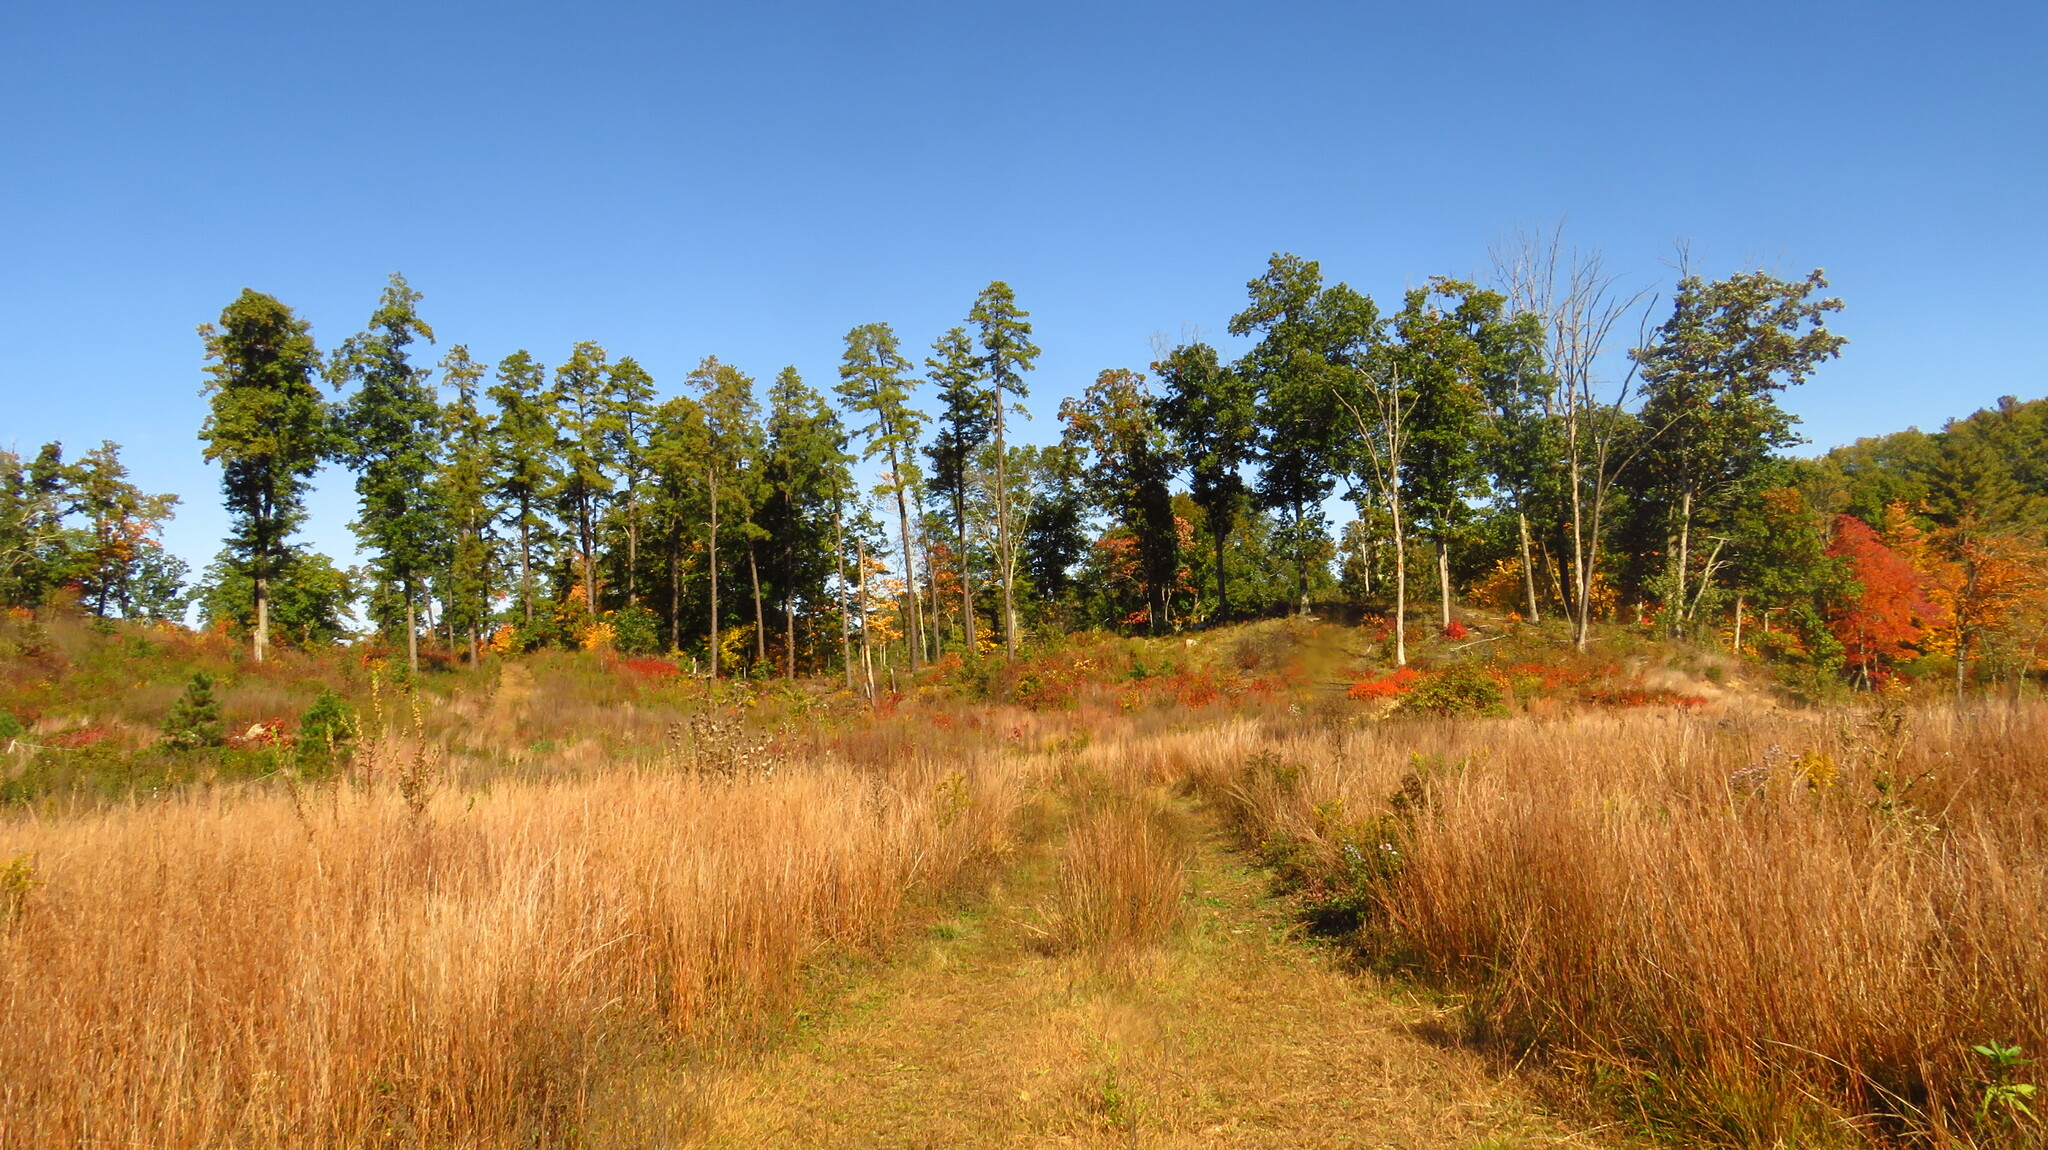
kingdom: Plantae
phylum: Tracheophyta
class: Liliopsida
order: Poales
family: Poaceae
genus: Schizachyrium
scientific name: Schizachyrium scoparium
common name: Little bluestem
